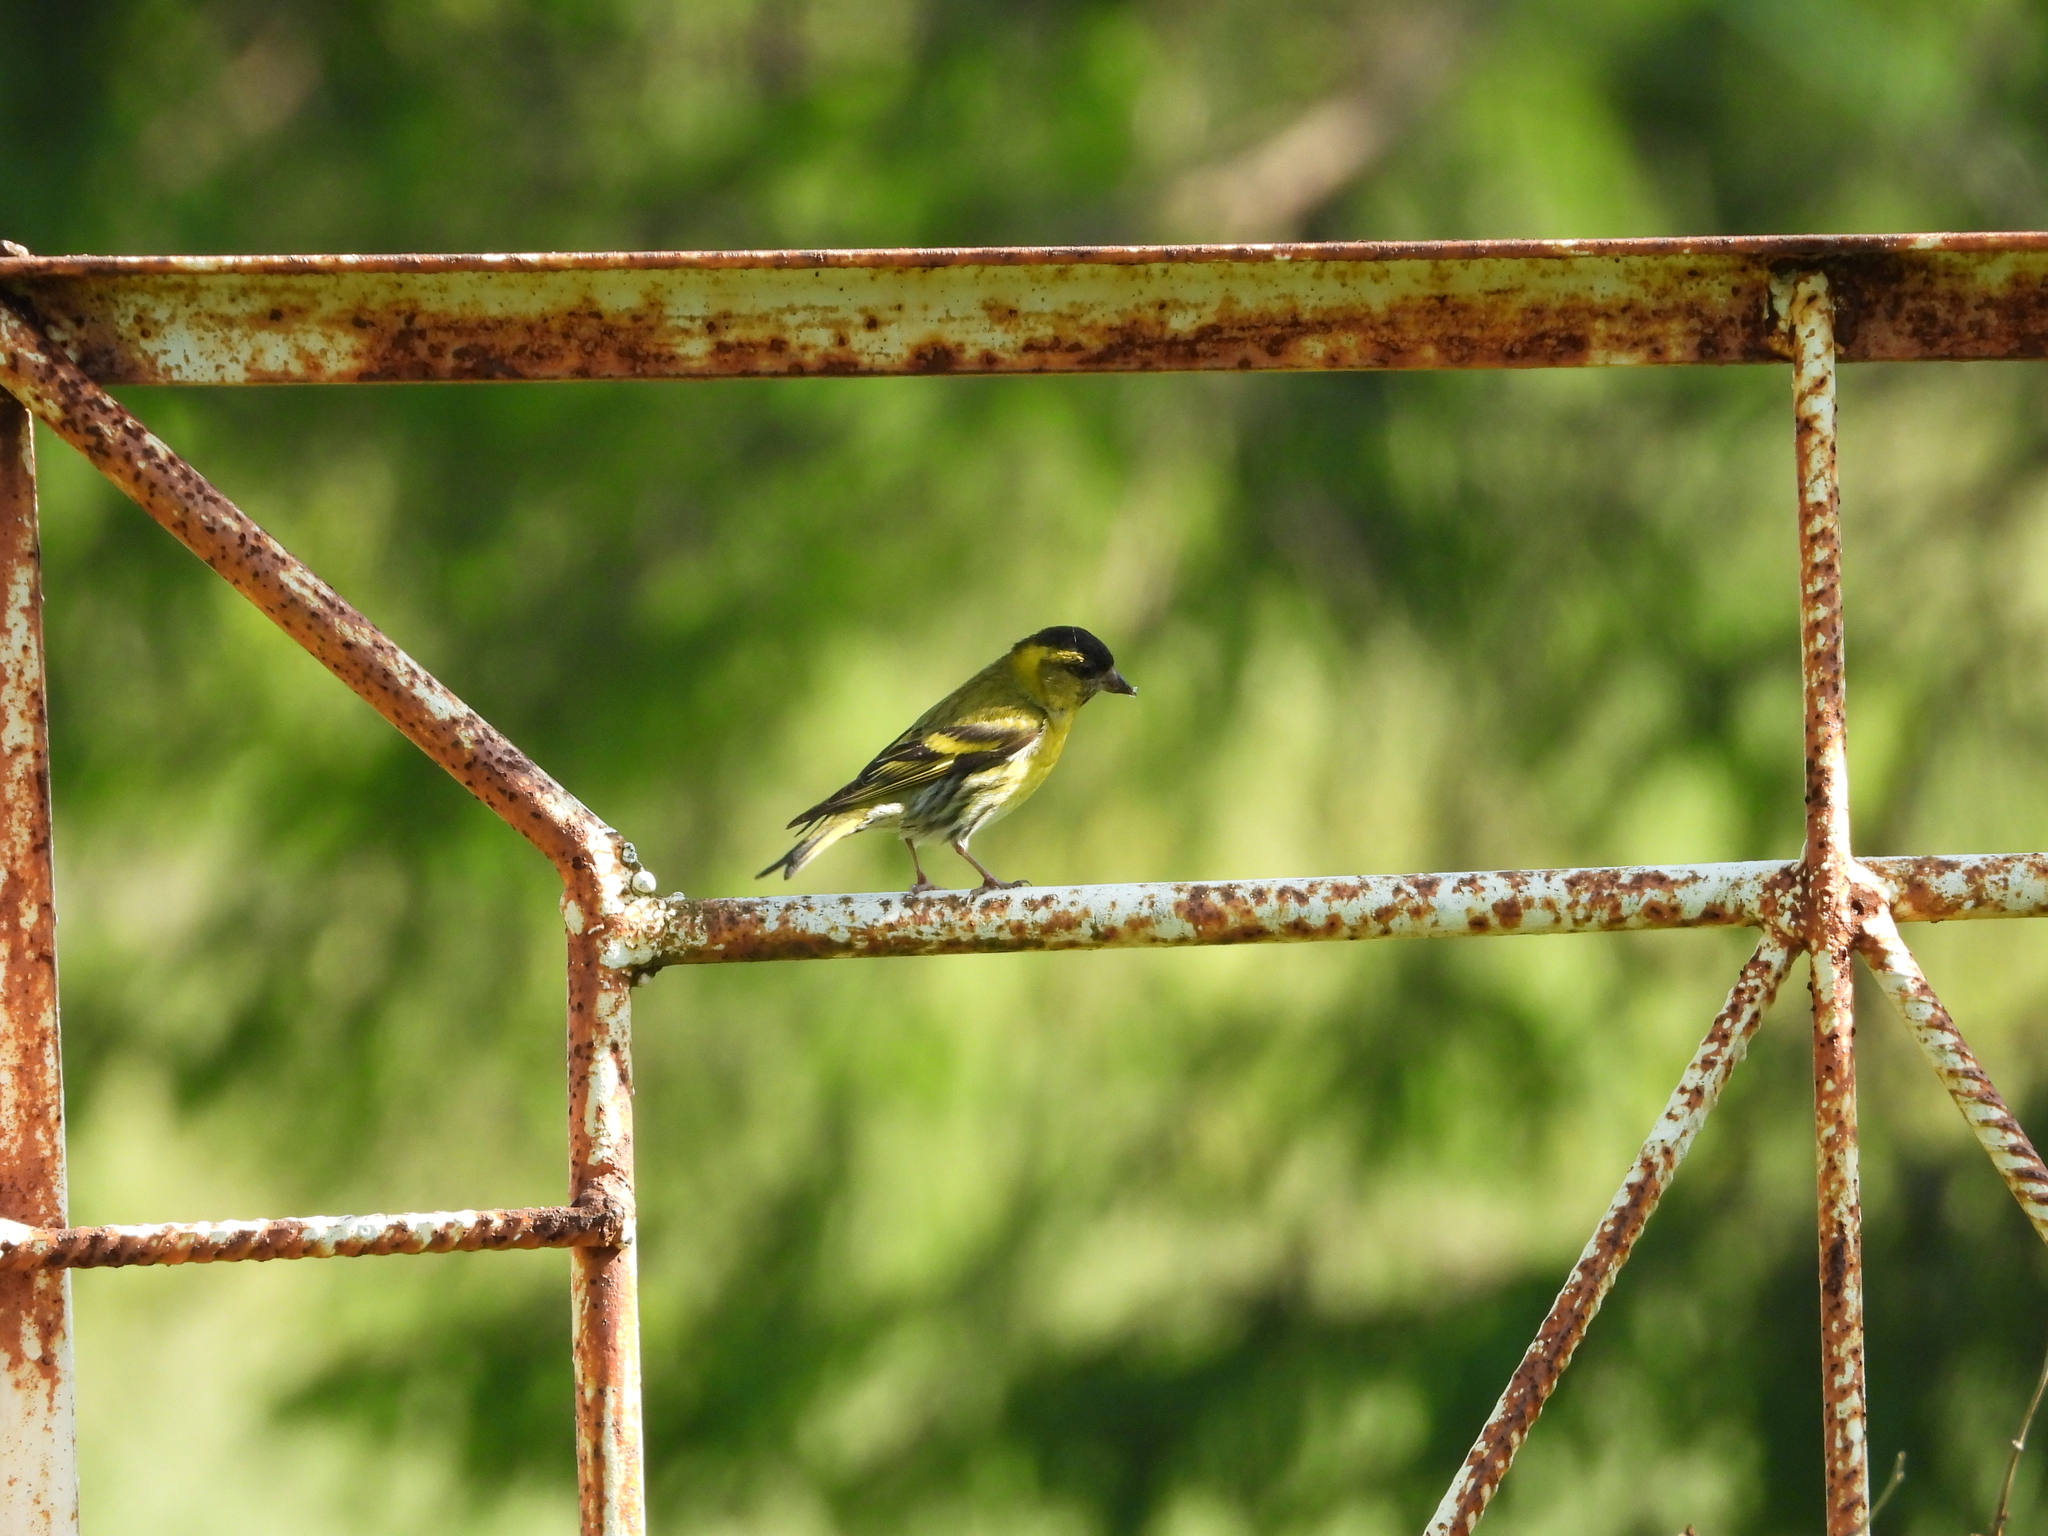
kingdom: Animalia
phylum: Chordata
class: Aves
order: Passeriformes
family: Fringillidae
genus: Spinus
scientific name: Spinus spinus
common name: Eurasian siskin
